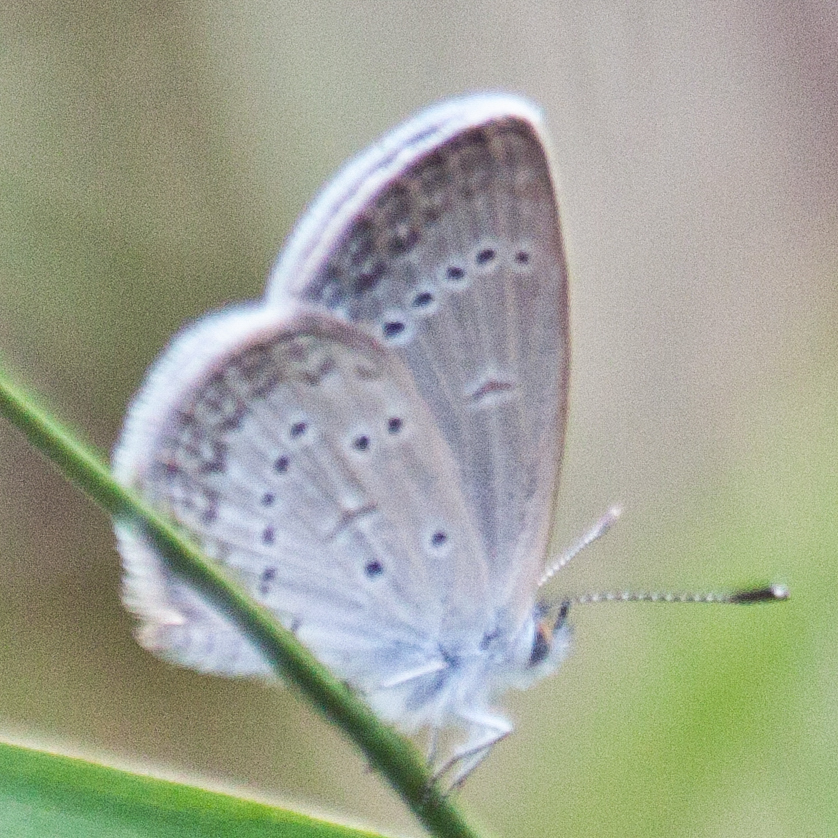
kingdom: Animalia
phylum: Arthropoda
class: Insecta
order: Lepidoptera
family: Lycaenidae
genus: Zizina
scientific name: Zizina otis
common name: Lesser grass blue
